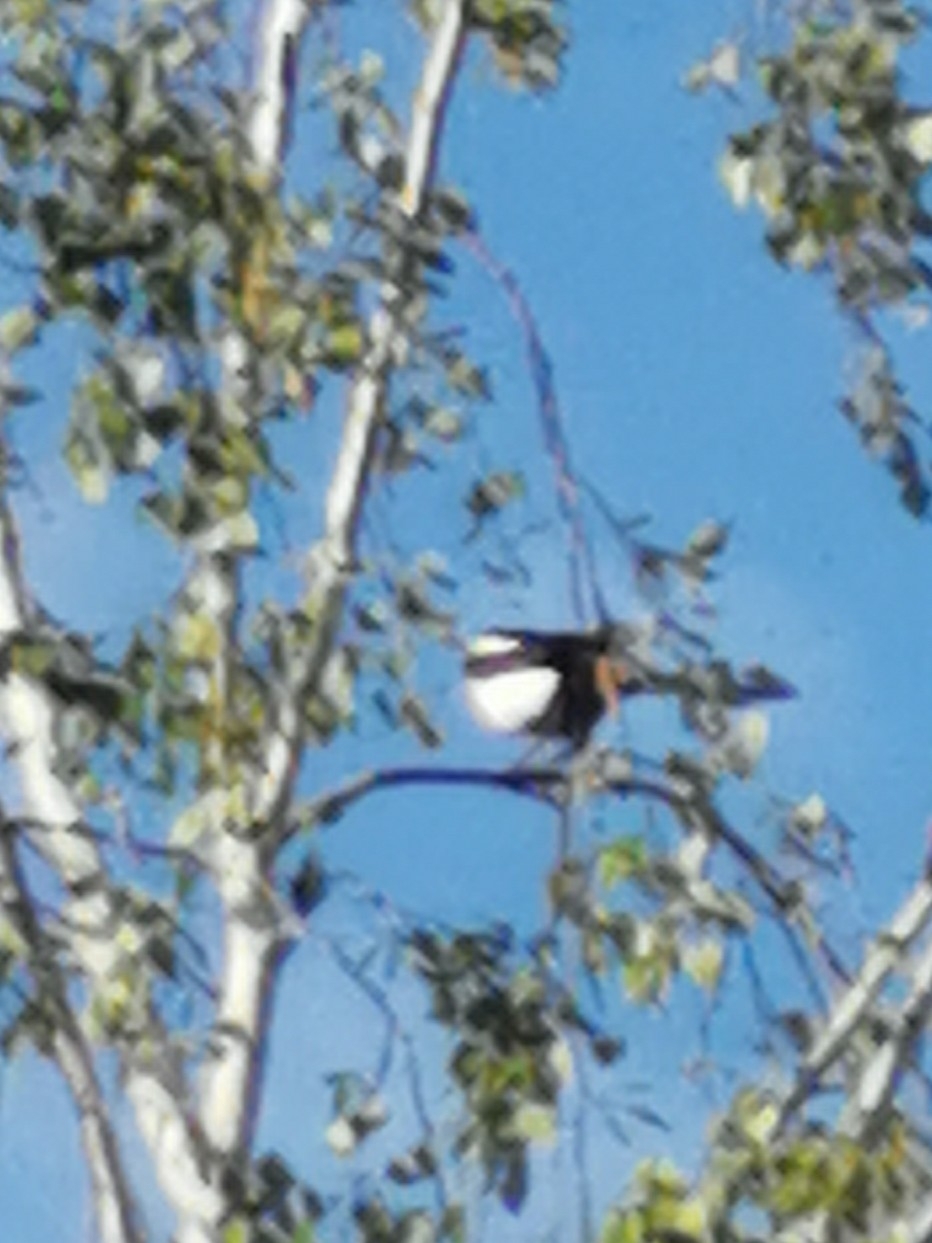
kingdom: Animalia
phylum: Chordata
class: Aves
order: Passeriformes
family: Corvidae
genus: Pica
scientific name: Pica pica
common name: Eurasian magpie
